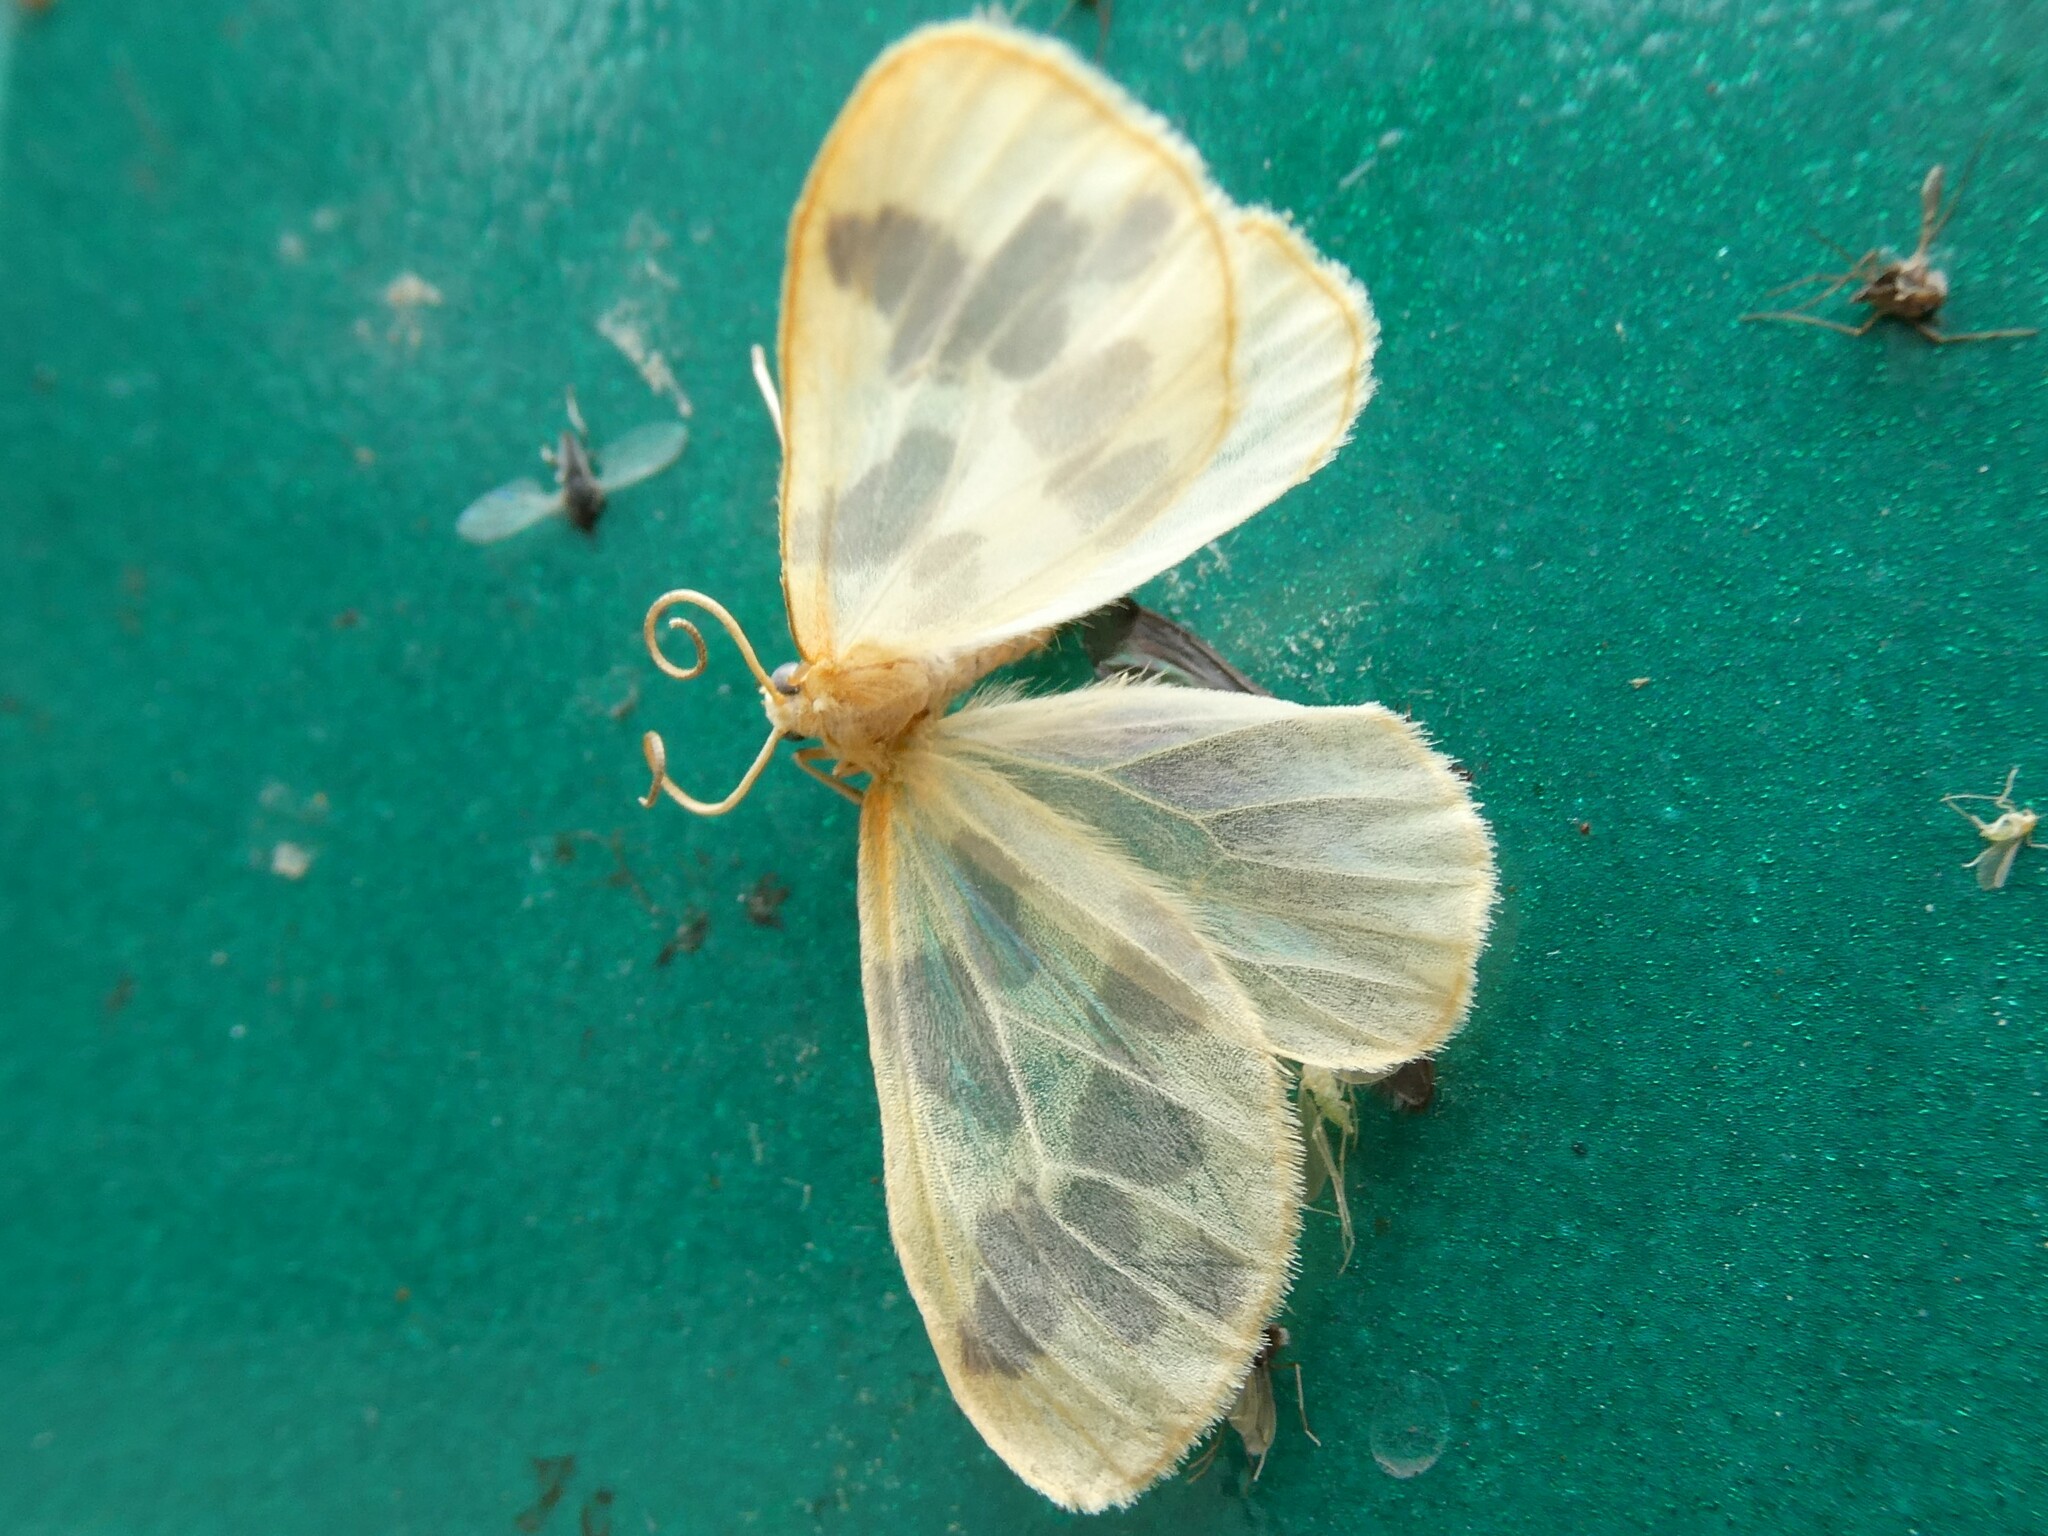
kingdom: Animalia
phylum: Arthropoda
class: Insecta
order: Lepidoptera
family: Geometridae
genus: Eubaphe
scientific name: Eubaphe mendica
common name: Beggar
